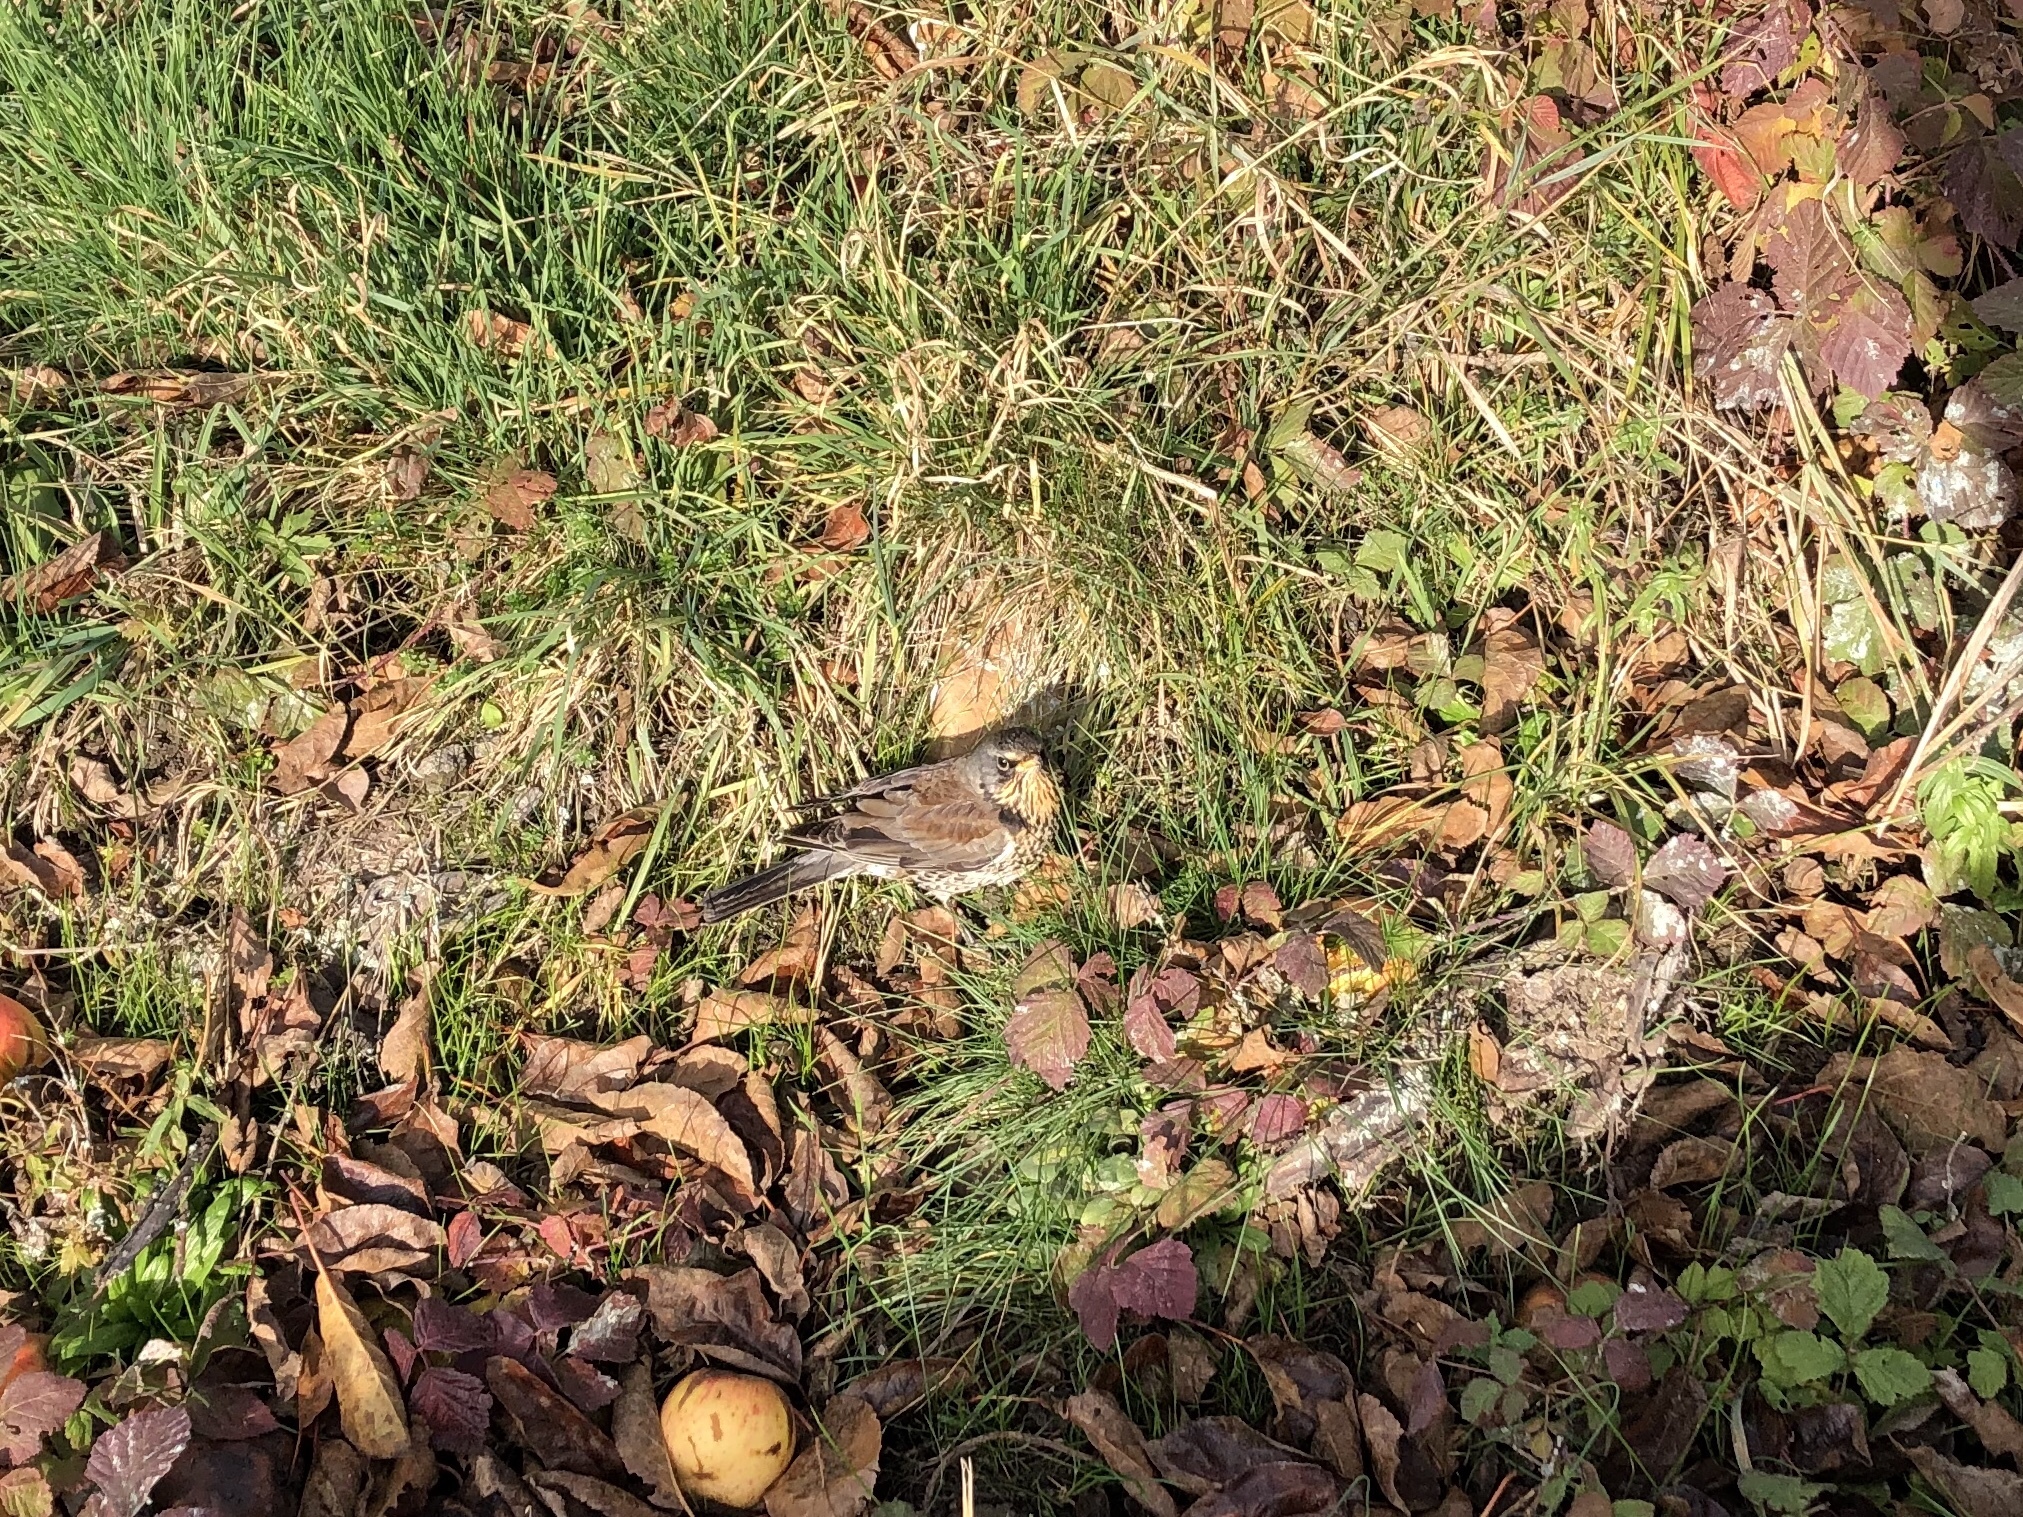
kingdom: Animalia
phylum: Chordata
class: Aves
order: Passeriformes
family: Turdidae
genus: Turdus
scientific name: Turdus pilaris
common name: Fieldfare
